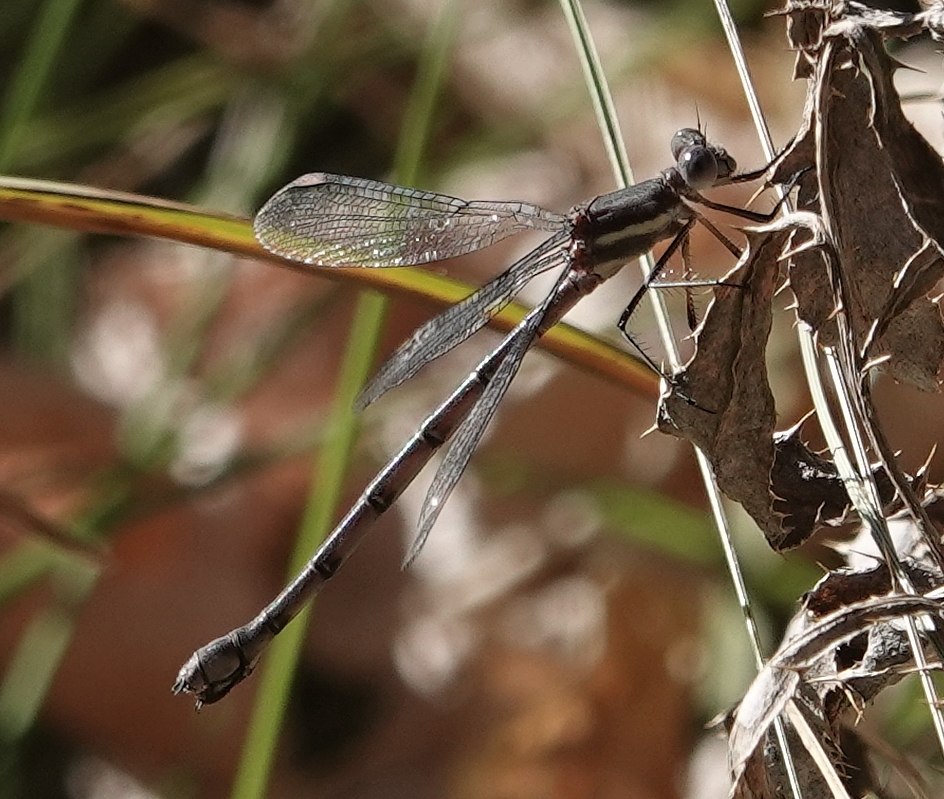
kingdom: Animalia
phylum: Arthropoda
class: Insecta
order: Odonata
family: Lestidae
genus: Archilestes
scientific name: Archilestes grandis
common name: Great spreadwing
